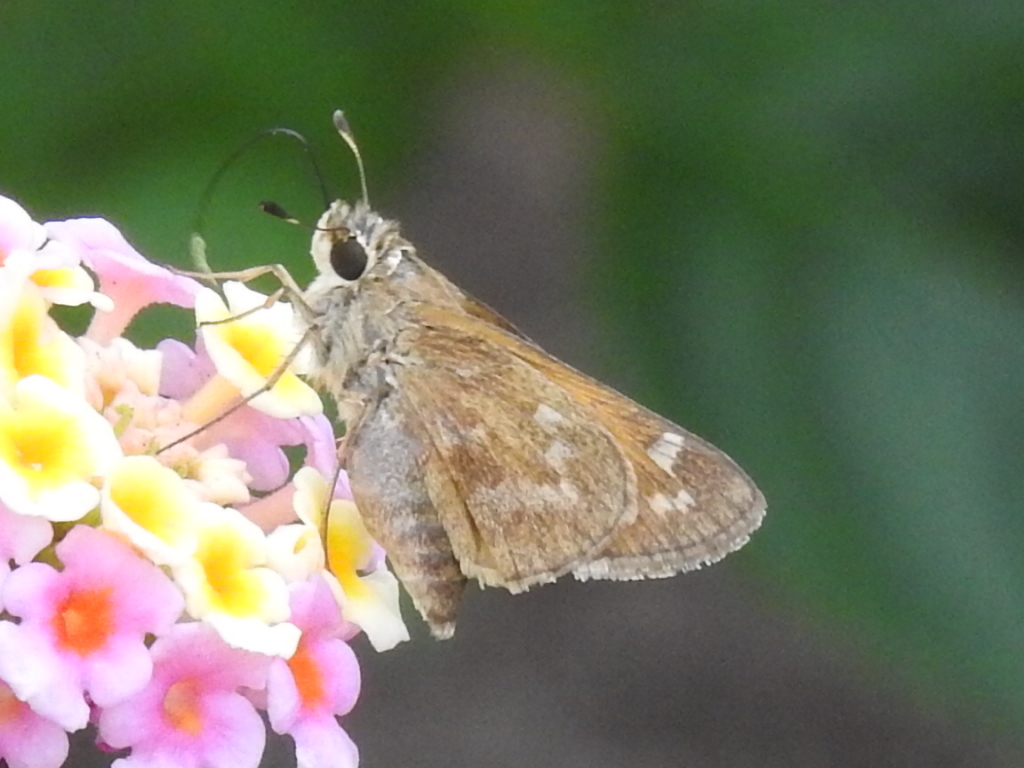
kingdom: Animalia
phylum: Arthropoda
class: Insecta
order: Lepidoptera
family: Hesperiidae
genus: Atalopedes
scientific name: Atalopedes
